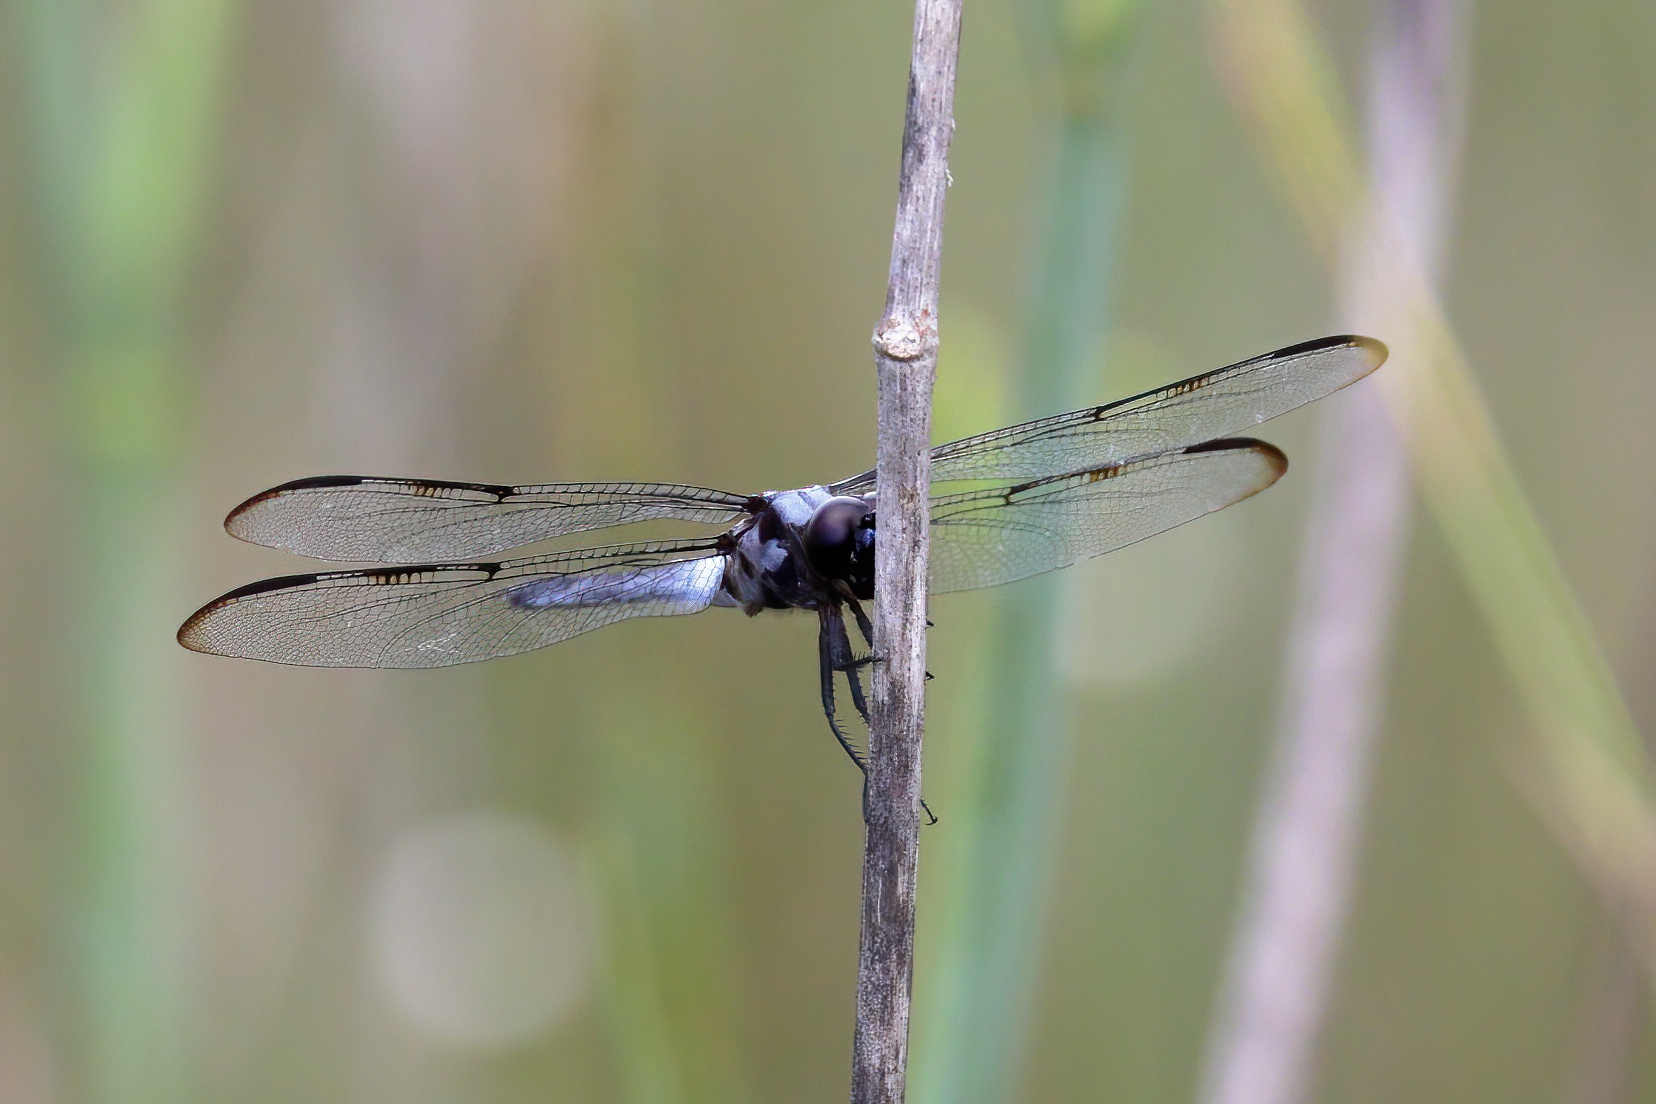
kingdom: Animalia
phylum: Arthropoda
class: Insecta
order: Odonata
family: Libellulidae
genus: Libellula
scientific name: Libellula axilena
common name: Bar-winged skimmer
